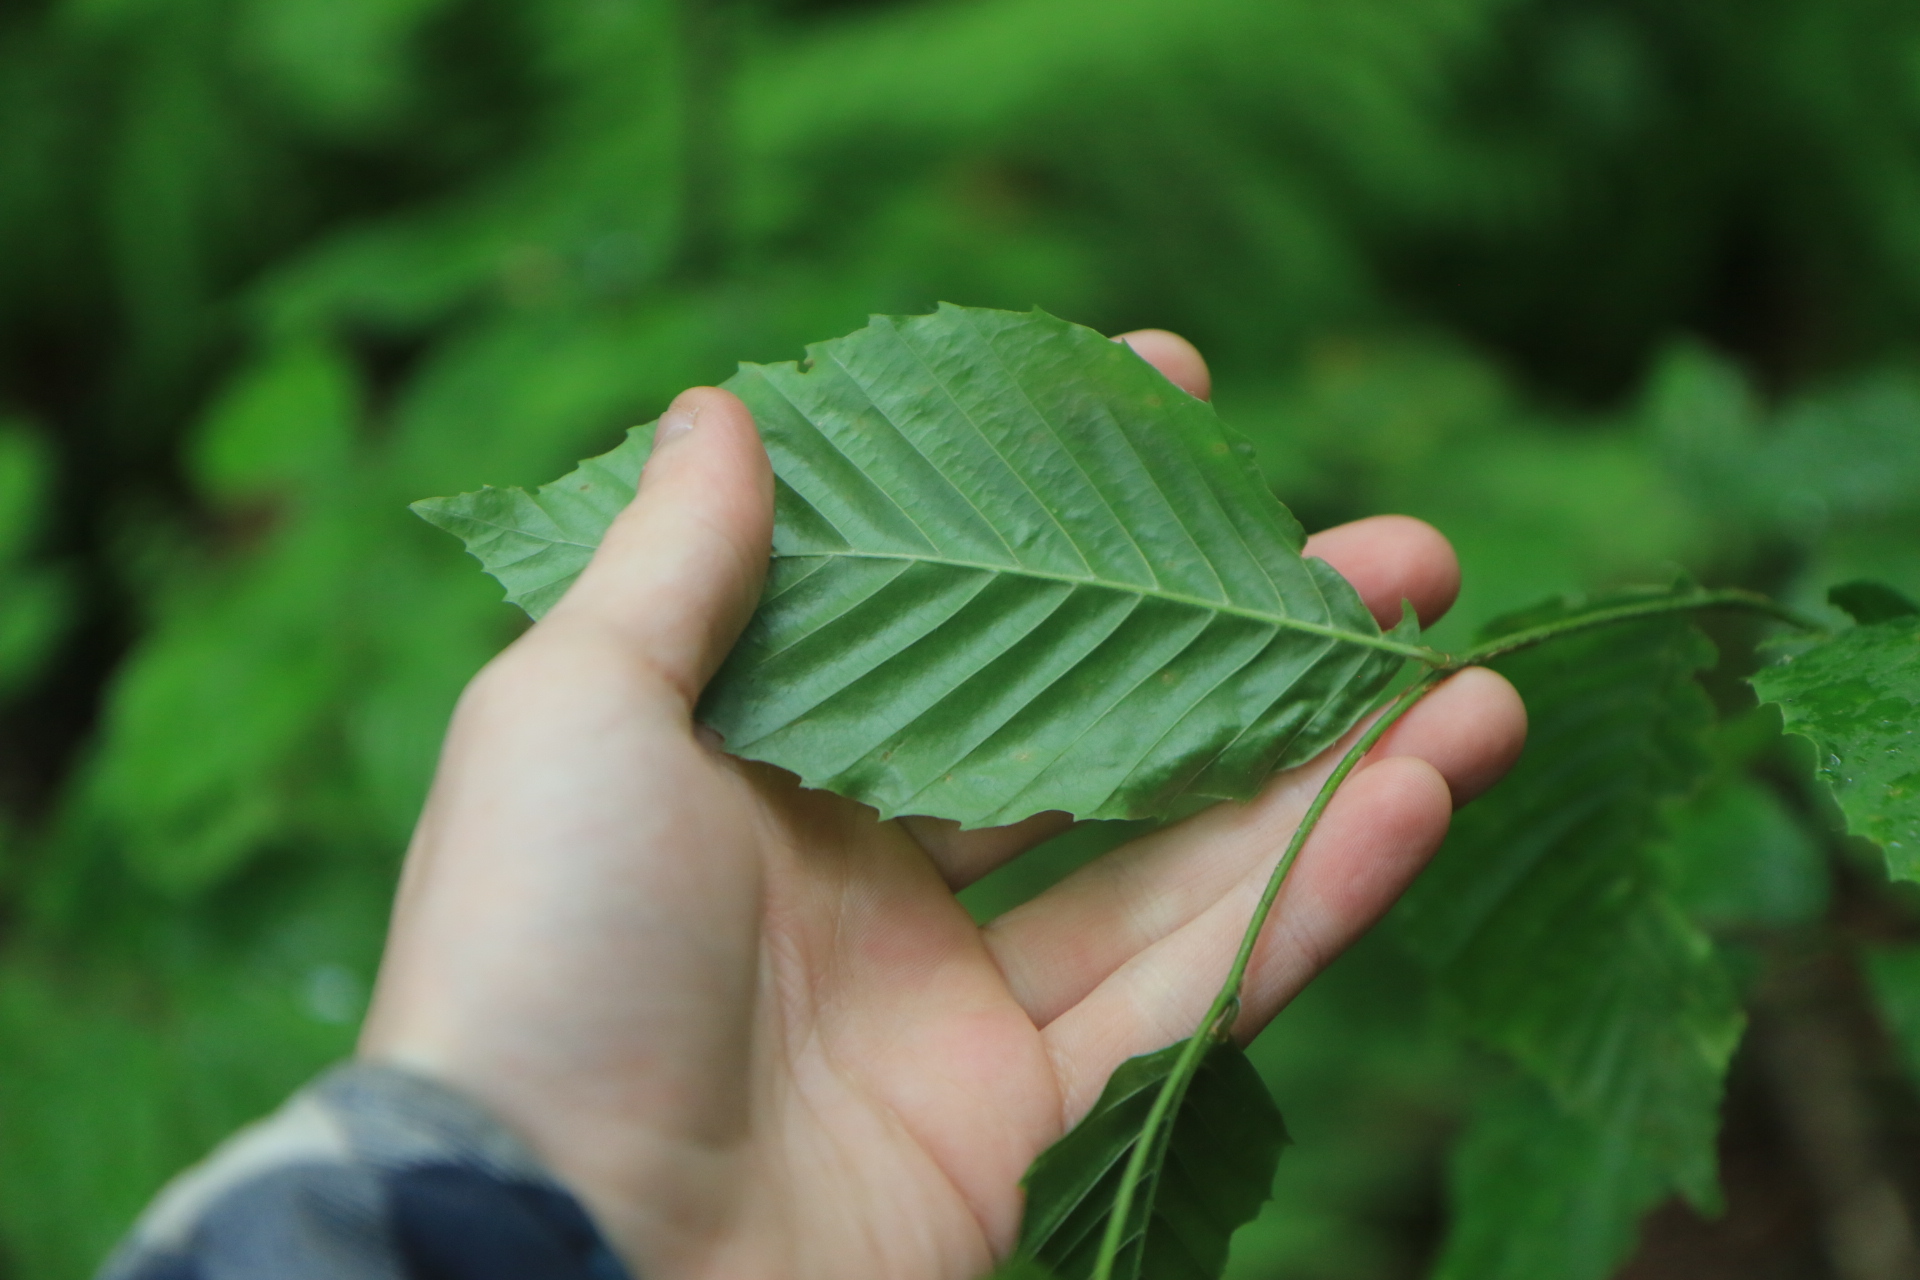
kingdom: Plantae
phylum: Tracheophyta
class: Magnoliopsida
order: Fagales
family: Fagaceae
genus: Fagus
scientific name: Fagus grandifolia
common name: American beech
